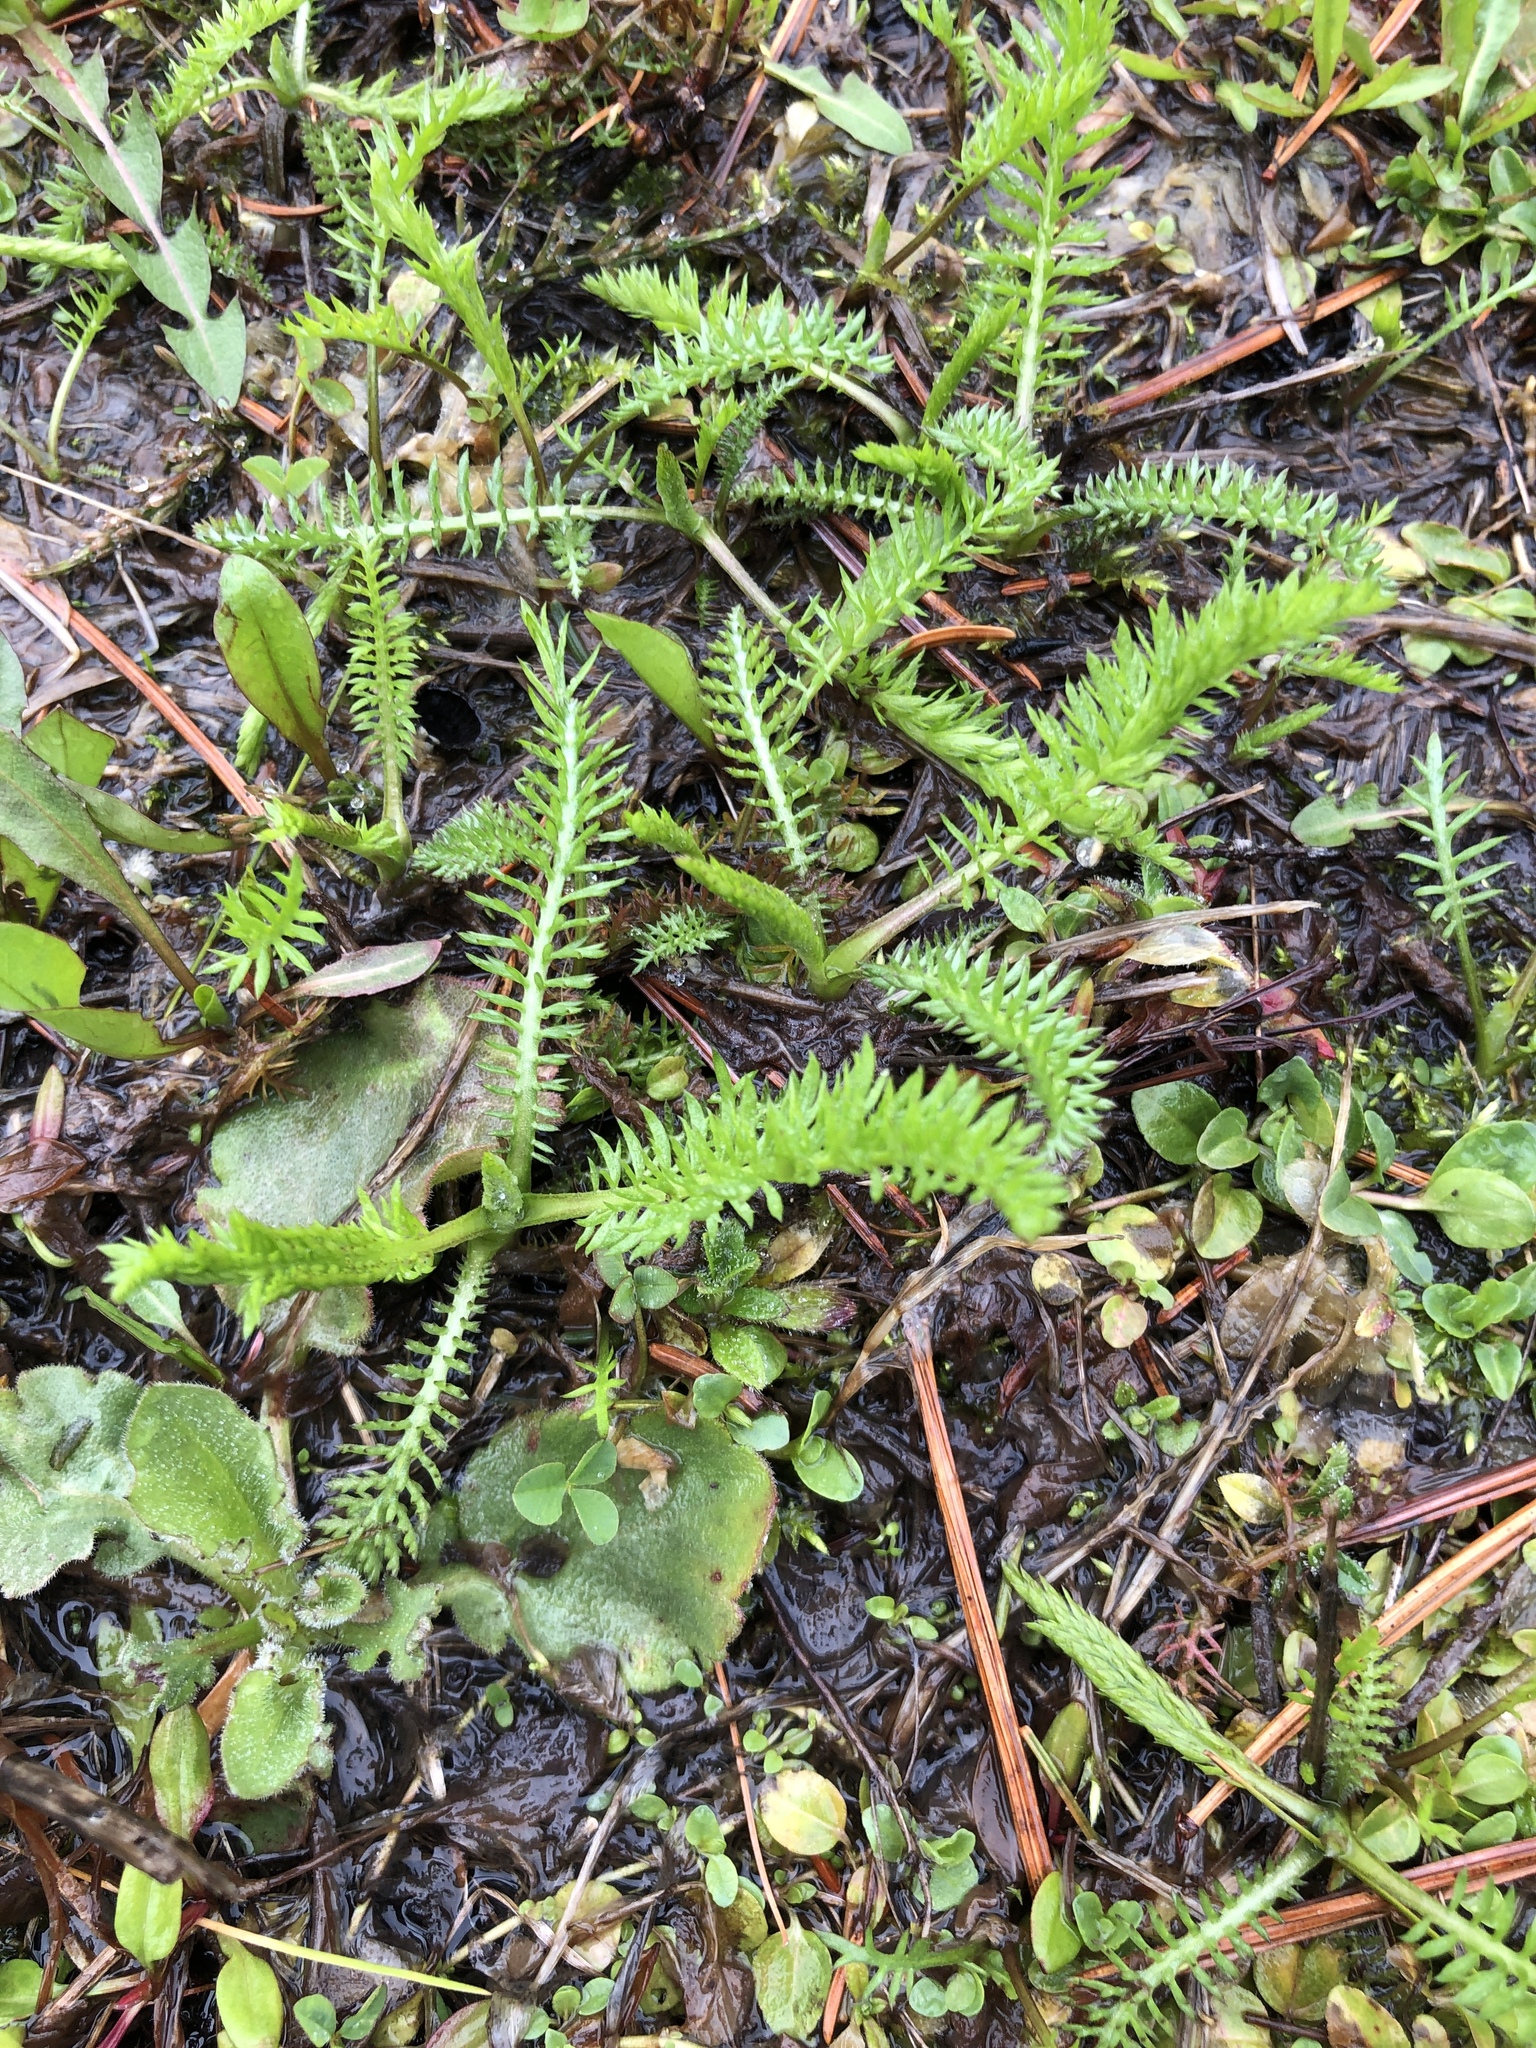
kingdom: Plantae
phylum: Tracheophyta
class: Magnoliopsida
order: Asterales
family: Asteraceae
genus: Achillea
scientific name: Achillea millefolium
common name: Yarrow
